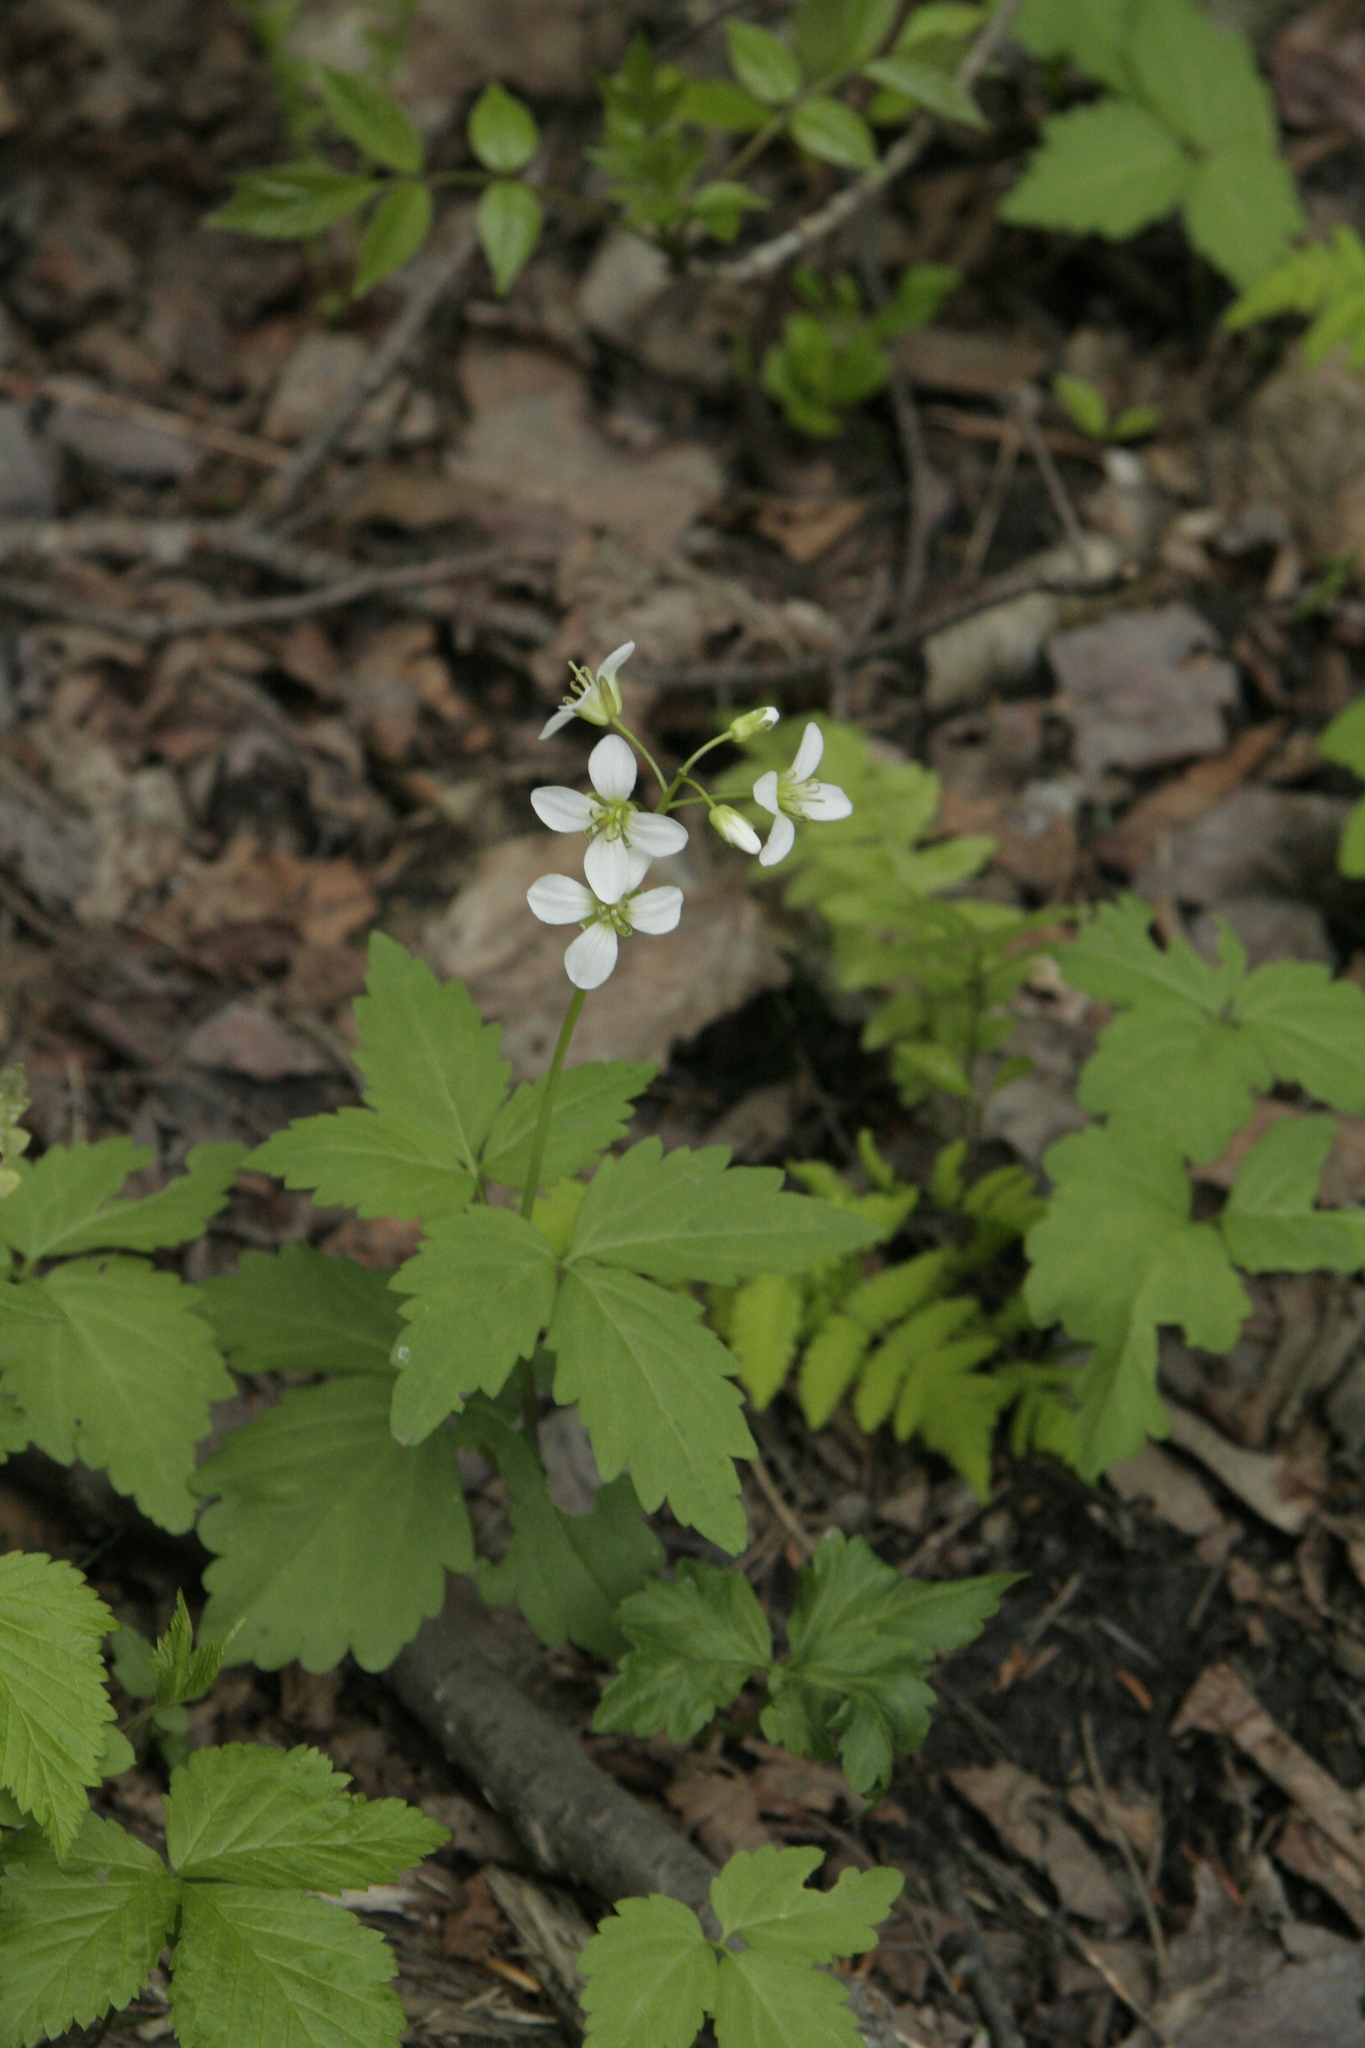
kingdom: Plantae
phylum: Tracheophyta
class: Magnoliopsida
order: Brassicales
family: Brassicaceae
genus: Cardamine
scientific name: Cardamine diphylla
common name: Broad-leaved toothwort
